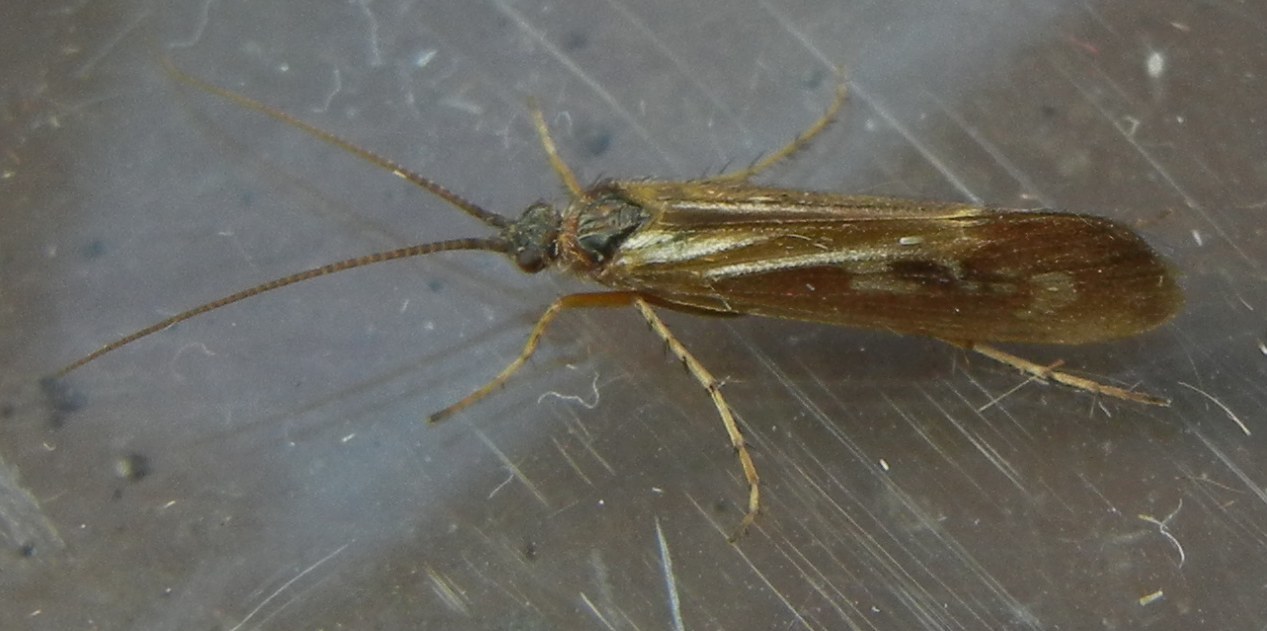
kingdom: Animalia
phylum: Arthropoda
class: Insecta
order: Trichoptera
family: Limnephilidae
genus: Limnephilus
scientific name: Limnephilus auricula
